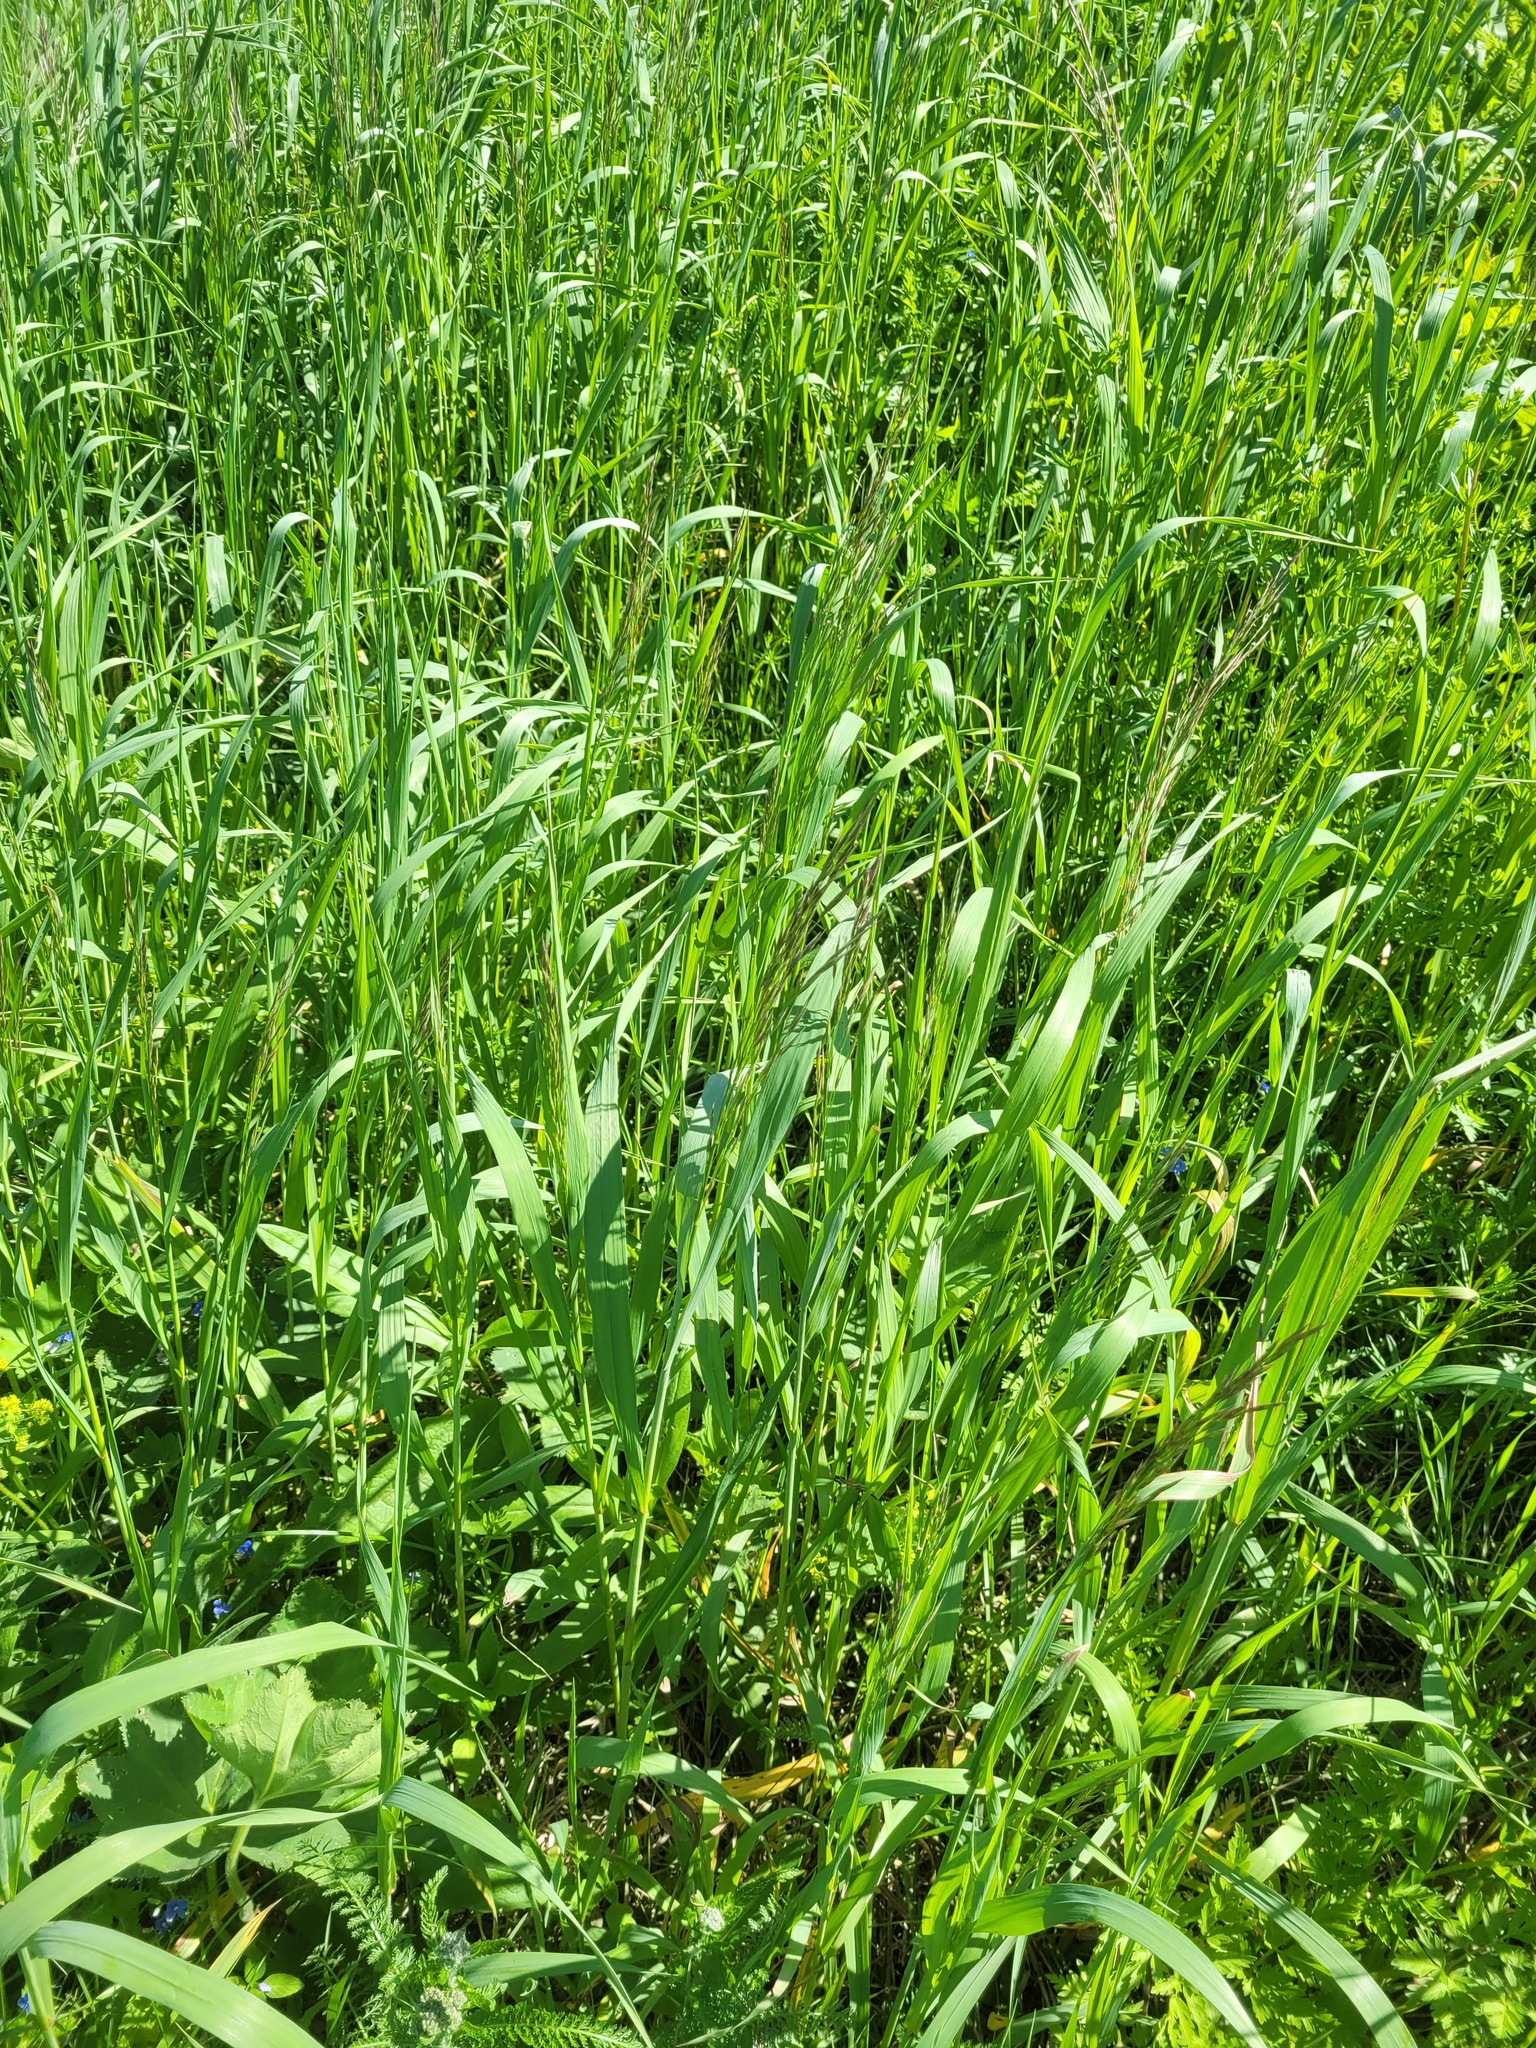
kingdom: Plantae
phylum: Tracheophyta
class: Liliopsida
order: Poales
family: Poaceae
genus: Bromus
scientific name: Bromus inermis
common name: Smooth brome
